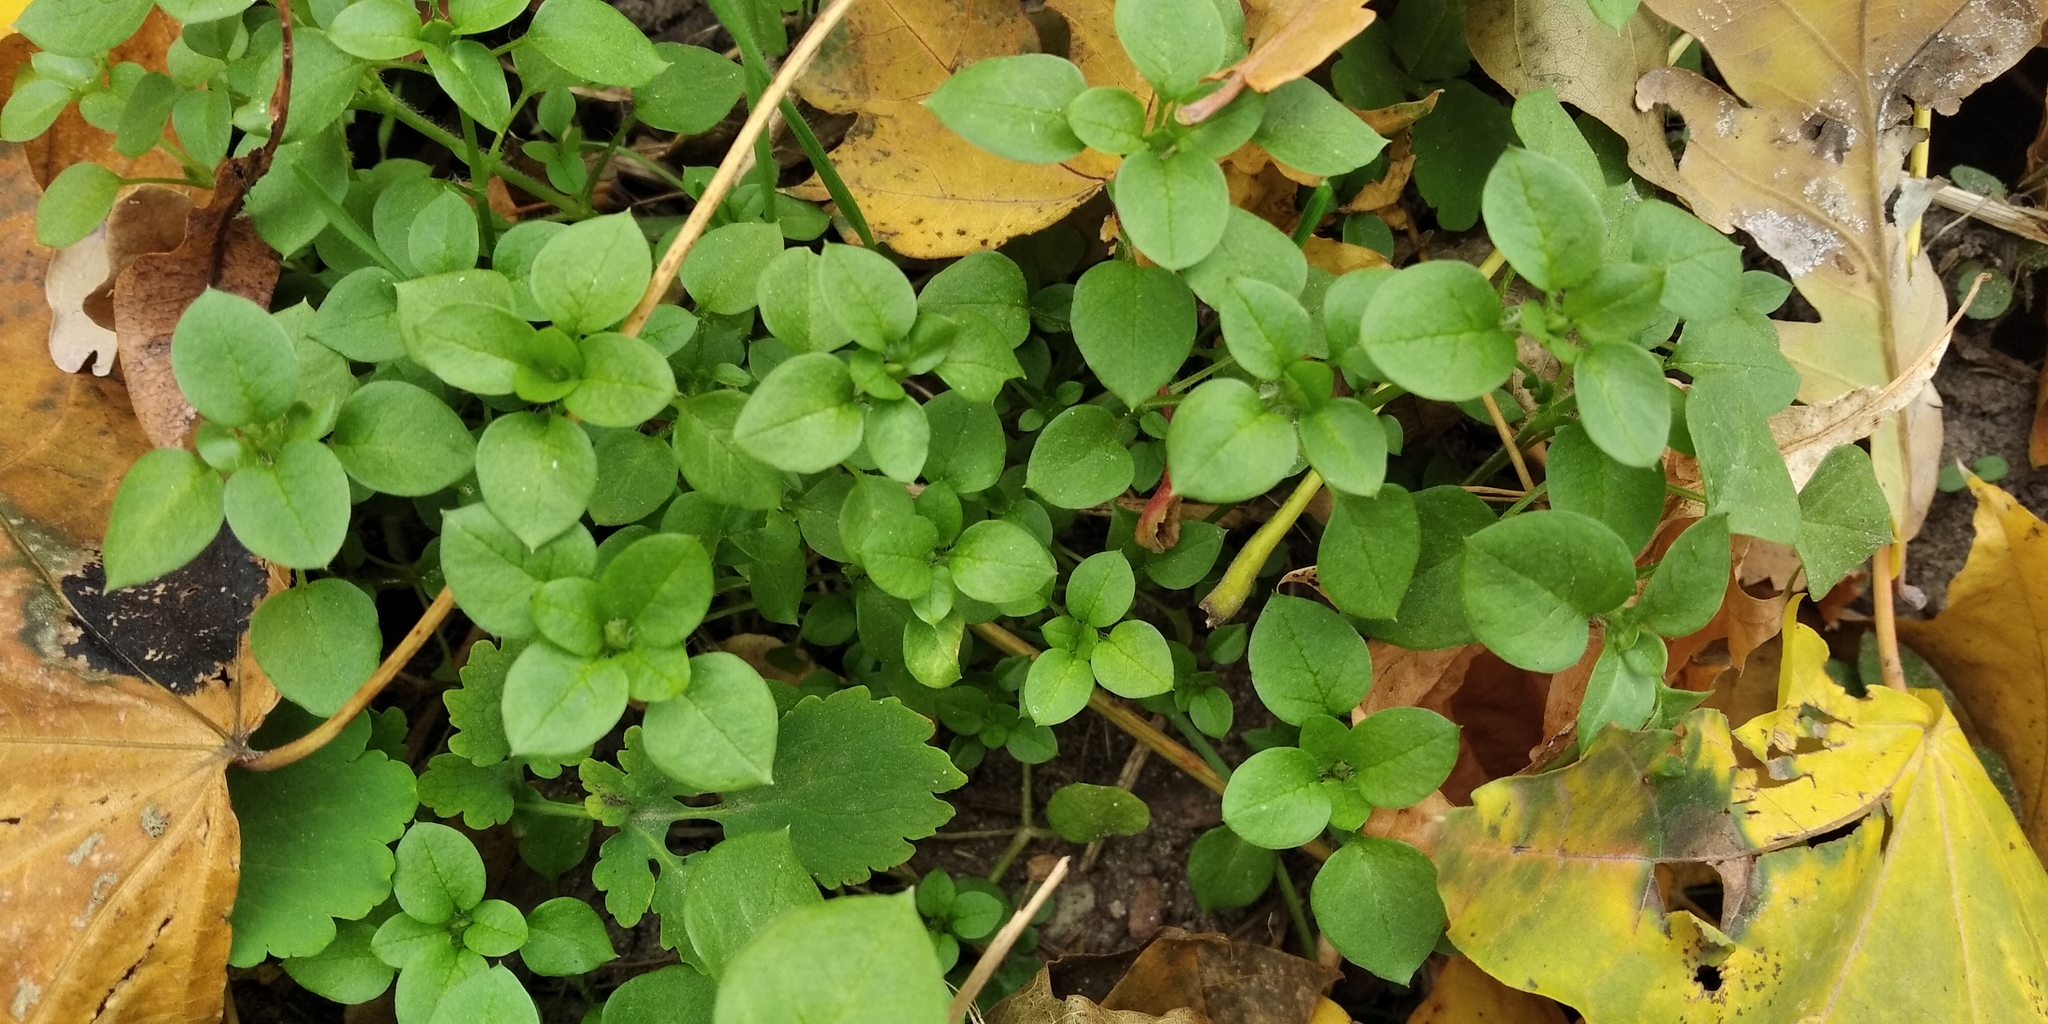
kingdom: Plantae
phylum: Tracheophyta
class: Magnoliopsida
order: Caryophyllales
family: Caryophyllaceae
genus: Stellaria
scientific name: Stellaria media
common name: Common chickweed
